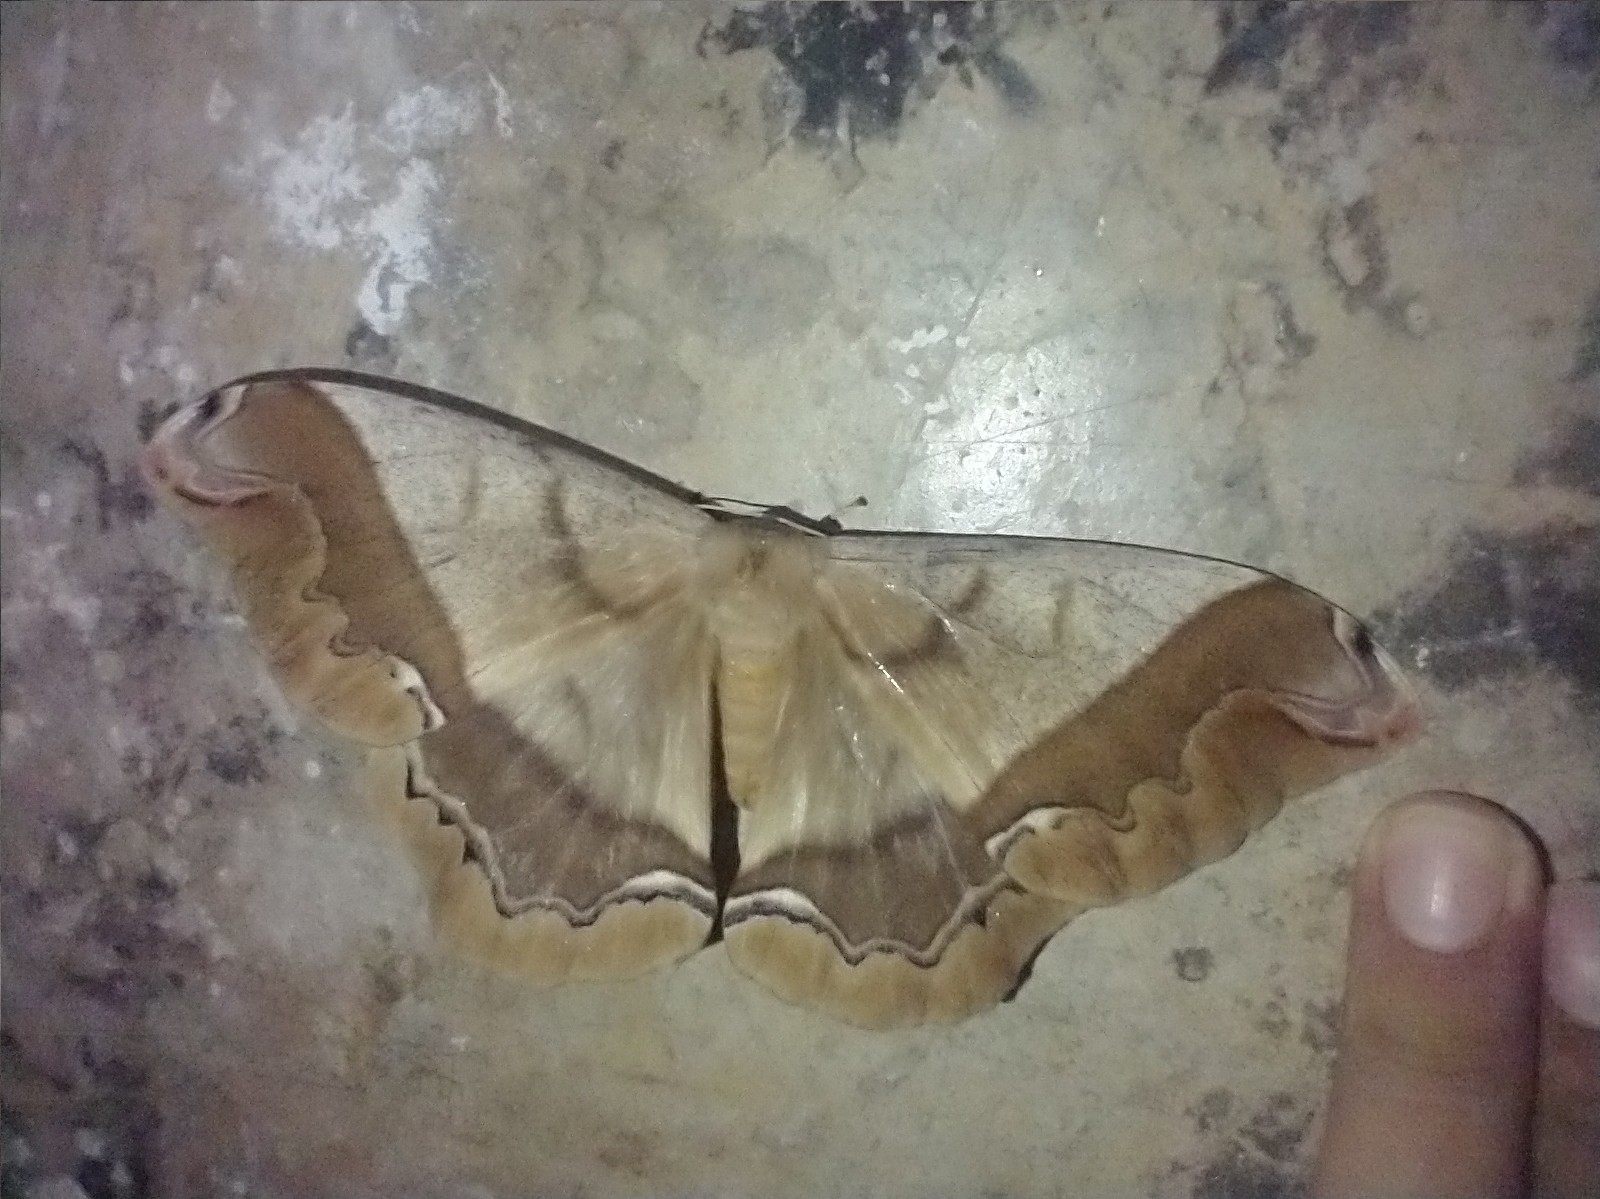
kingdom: Animalia
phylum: Arthropoda
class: Insecta
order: Lepidoptera
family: Saturniidae
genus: Arsenura
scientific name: Arsenura armida
